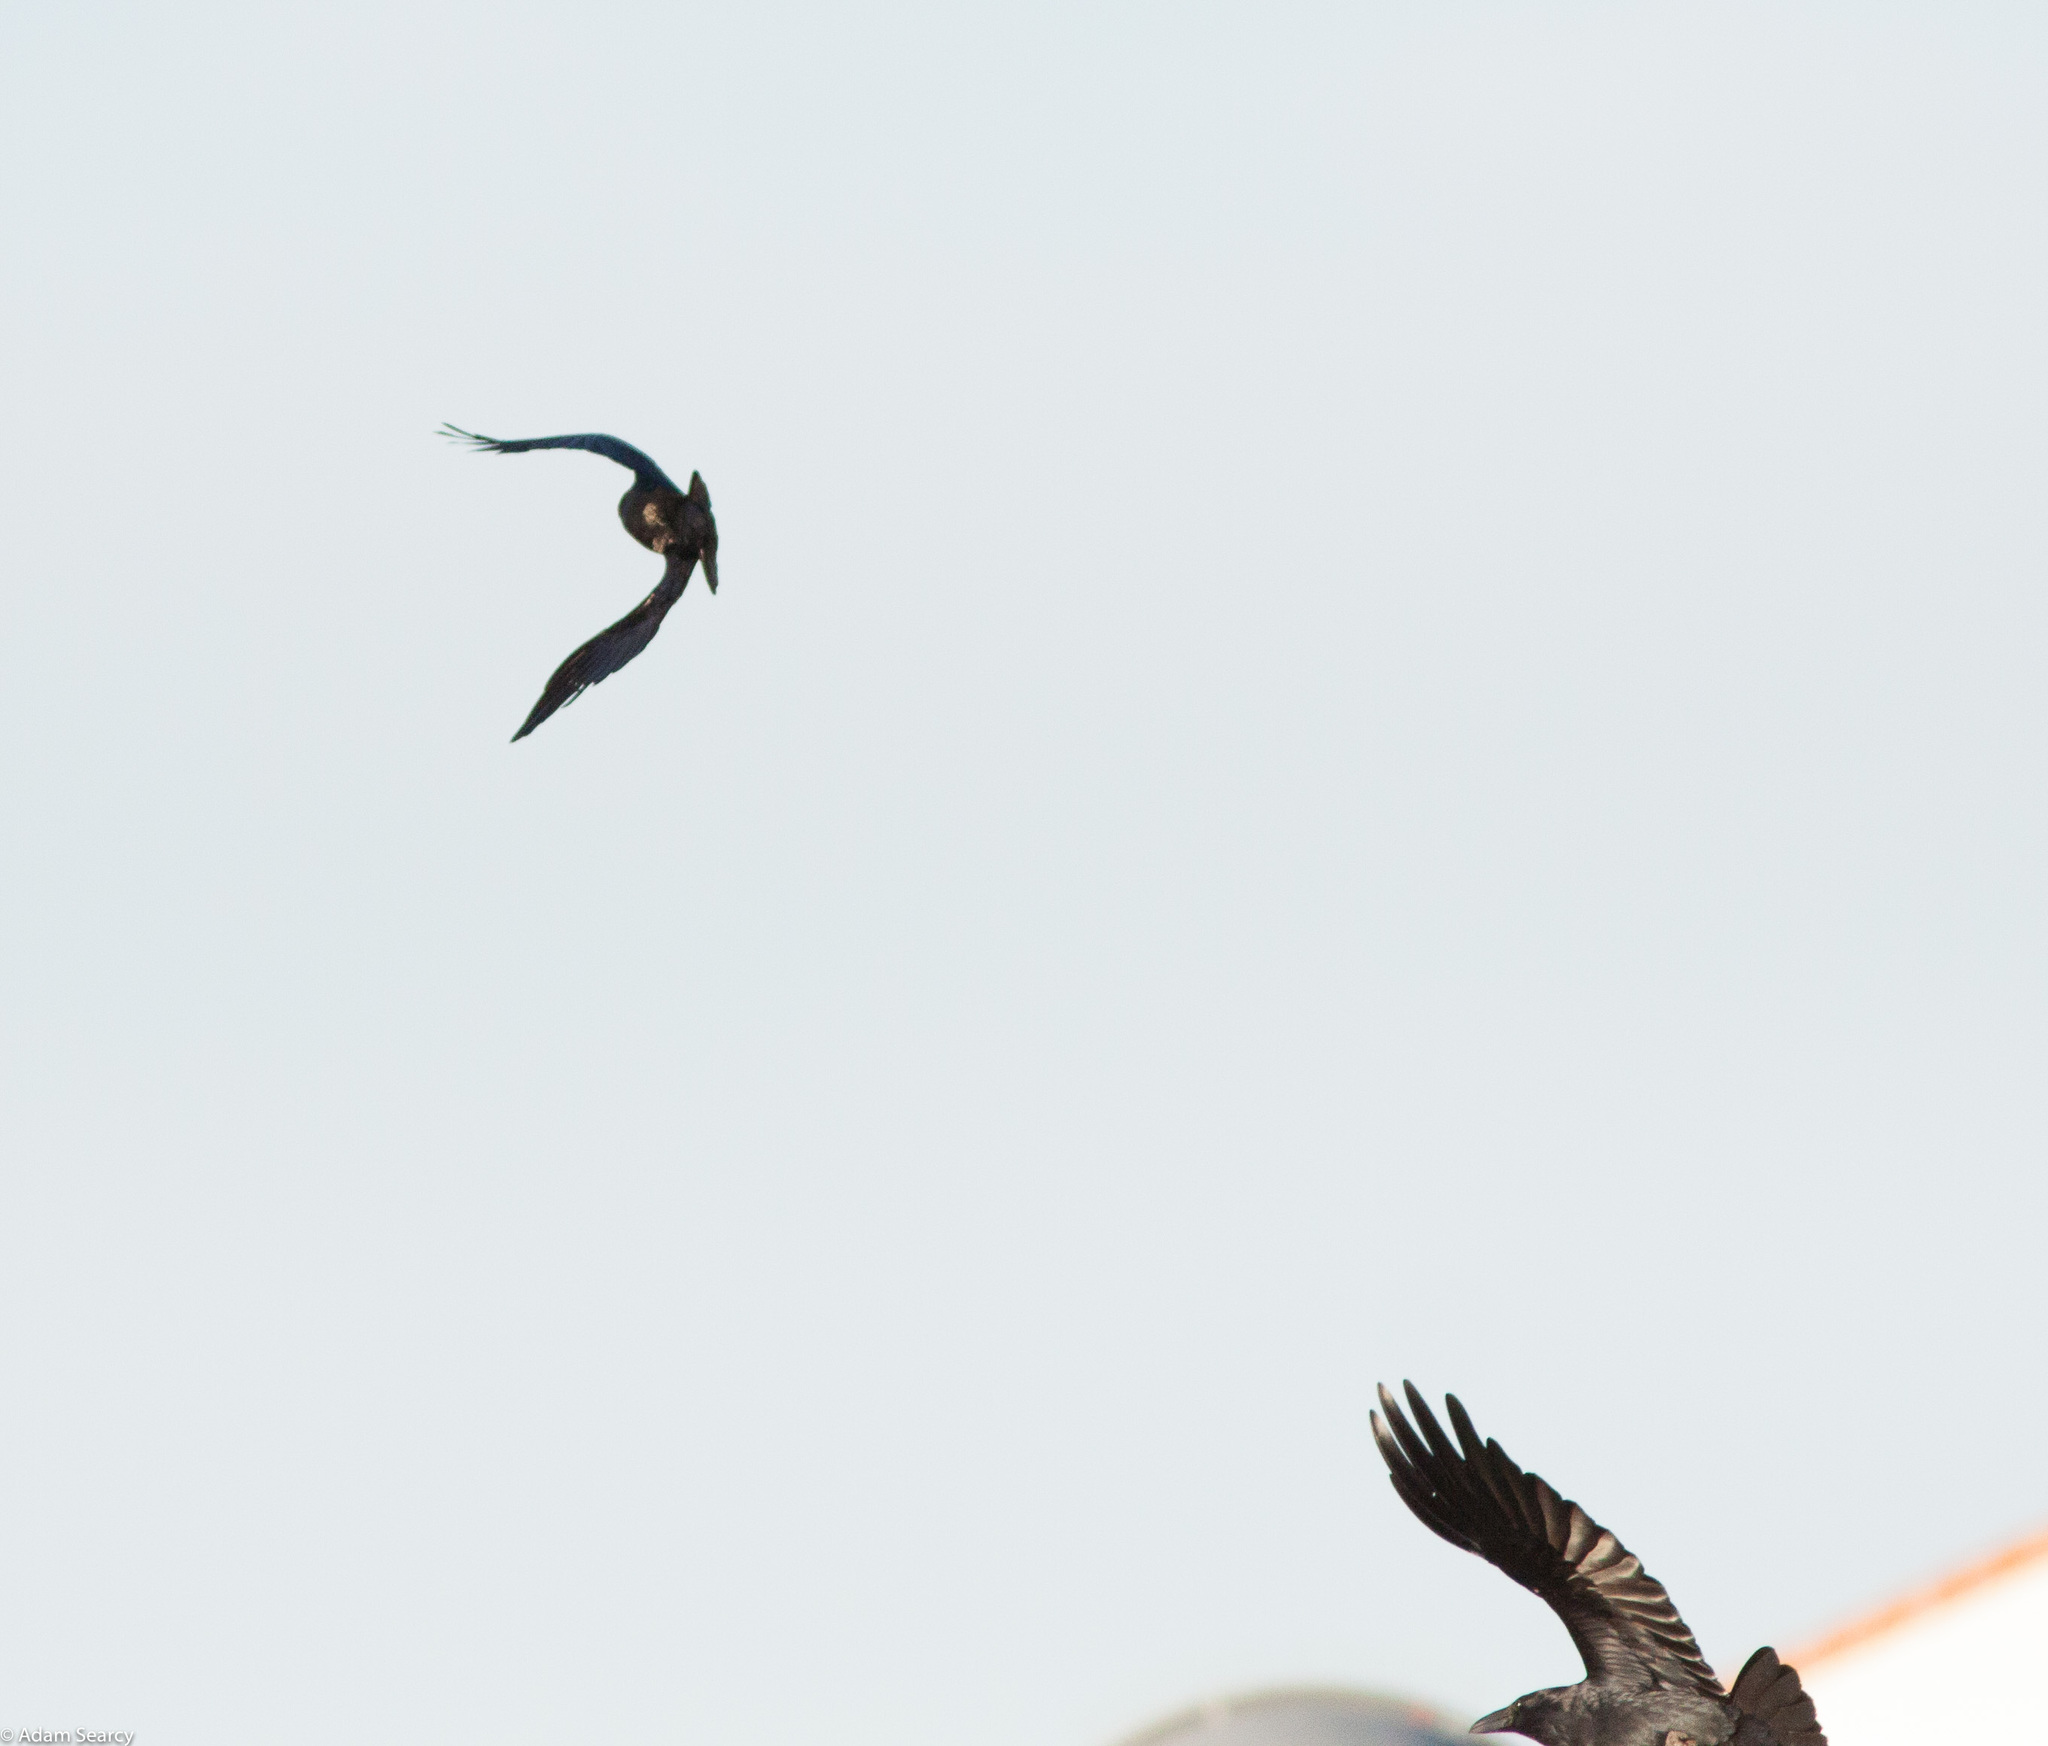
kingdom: Animalia
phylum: Chordata
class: Aves
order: Passeriformes
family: Corvidae
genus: Corvus
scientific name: Corvus brachyrhynchos
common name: American crow
